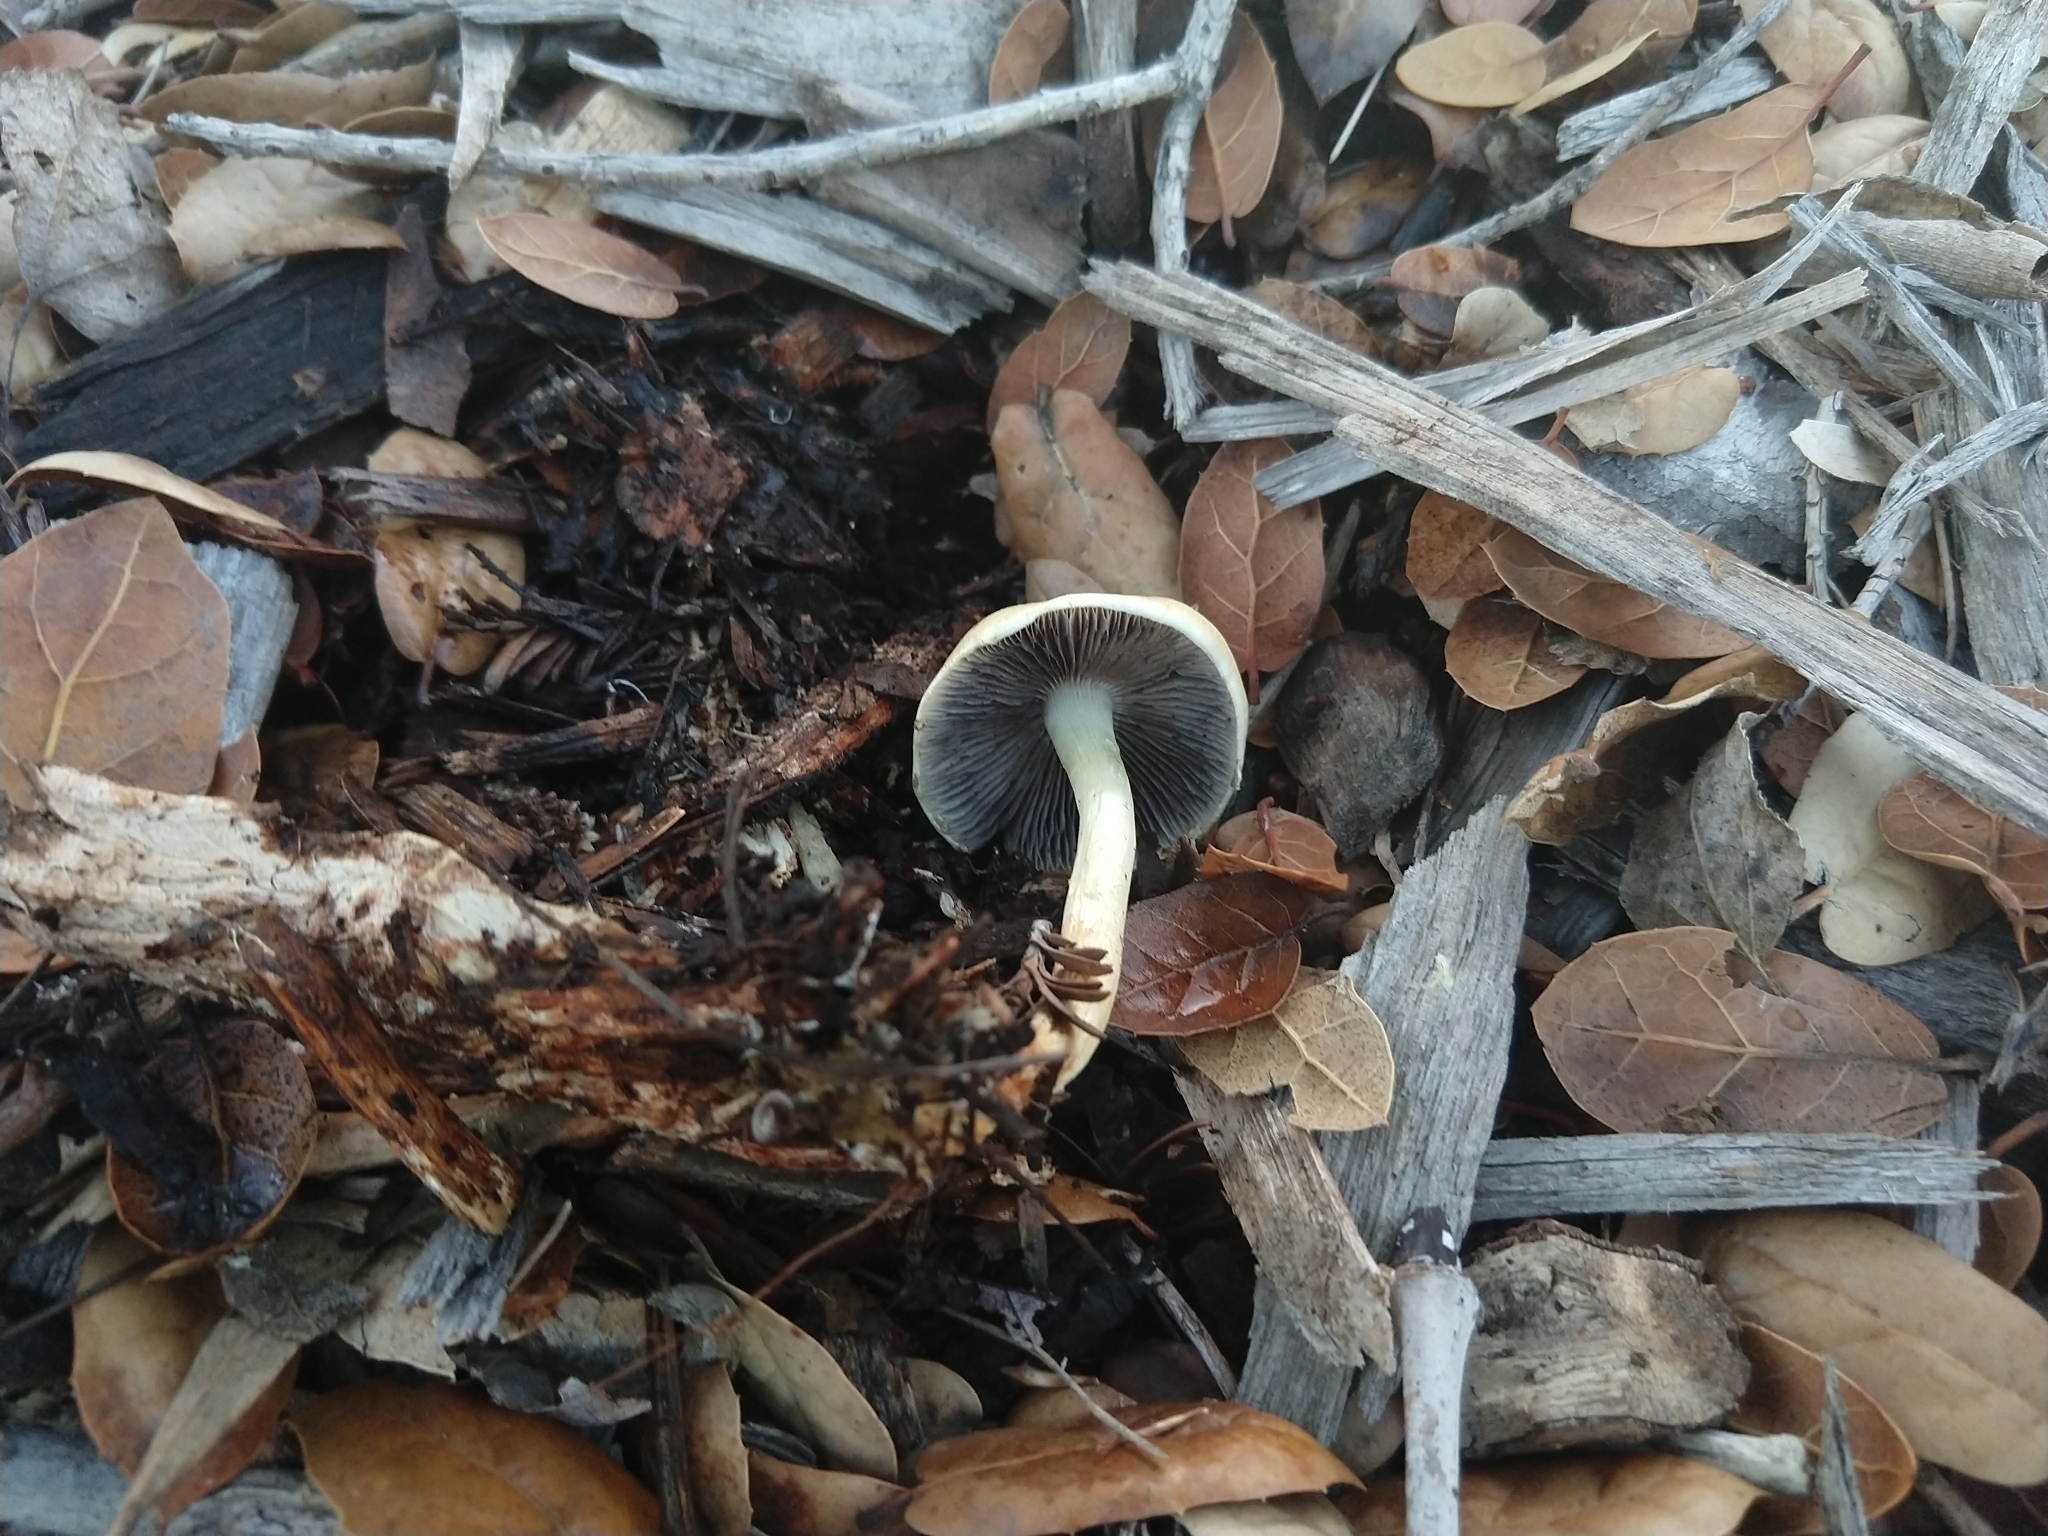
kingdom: Fungi
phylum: Basidiomycota
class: Agaricomycetes
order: Agaricales
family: Strophariaceae
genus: Leratiomyces
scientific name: Leratiomyces percevalii
